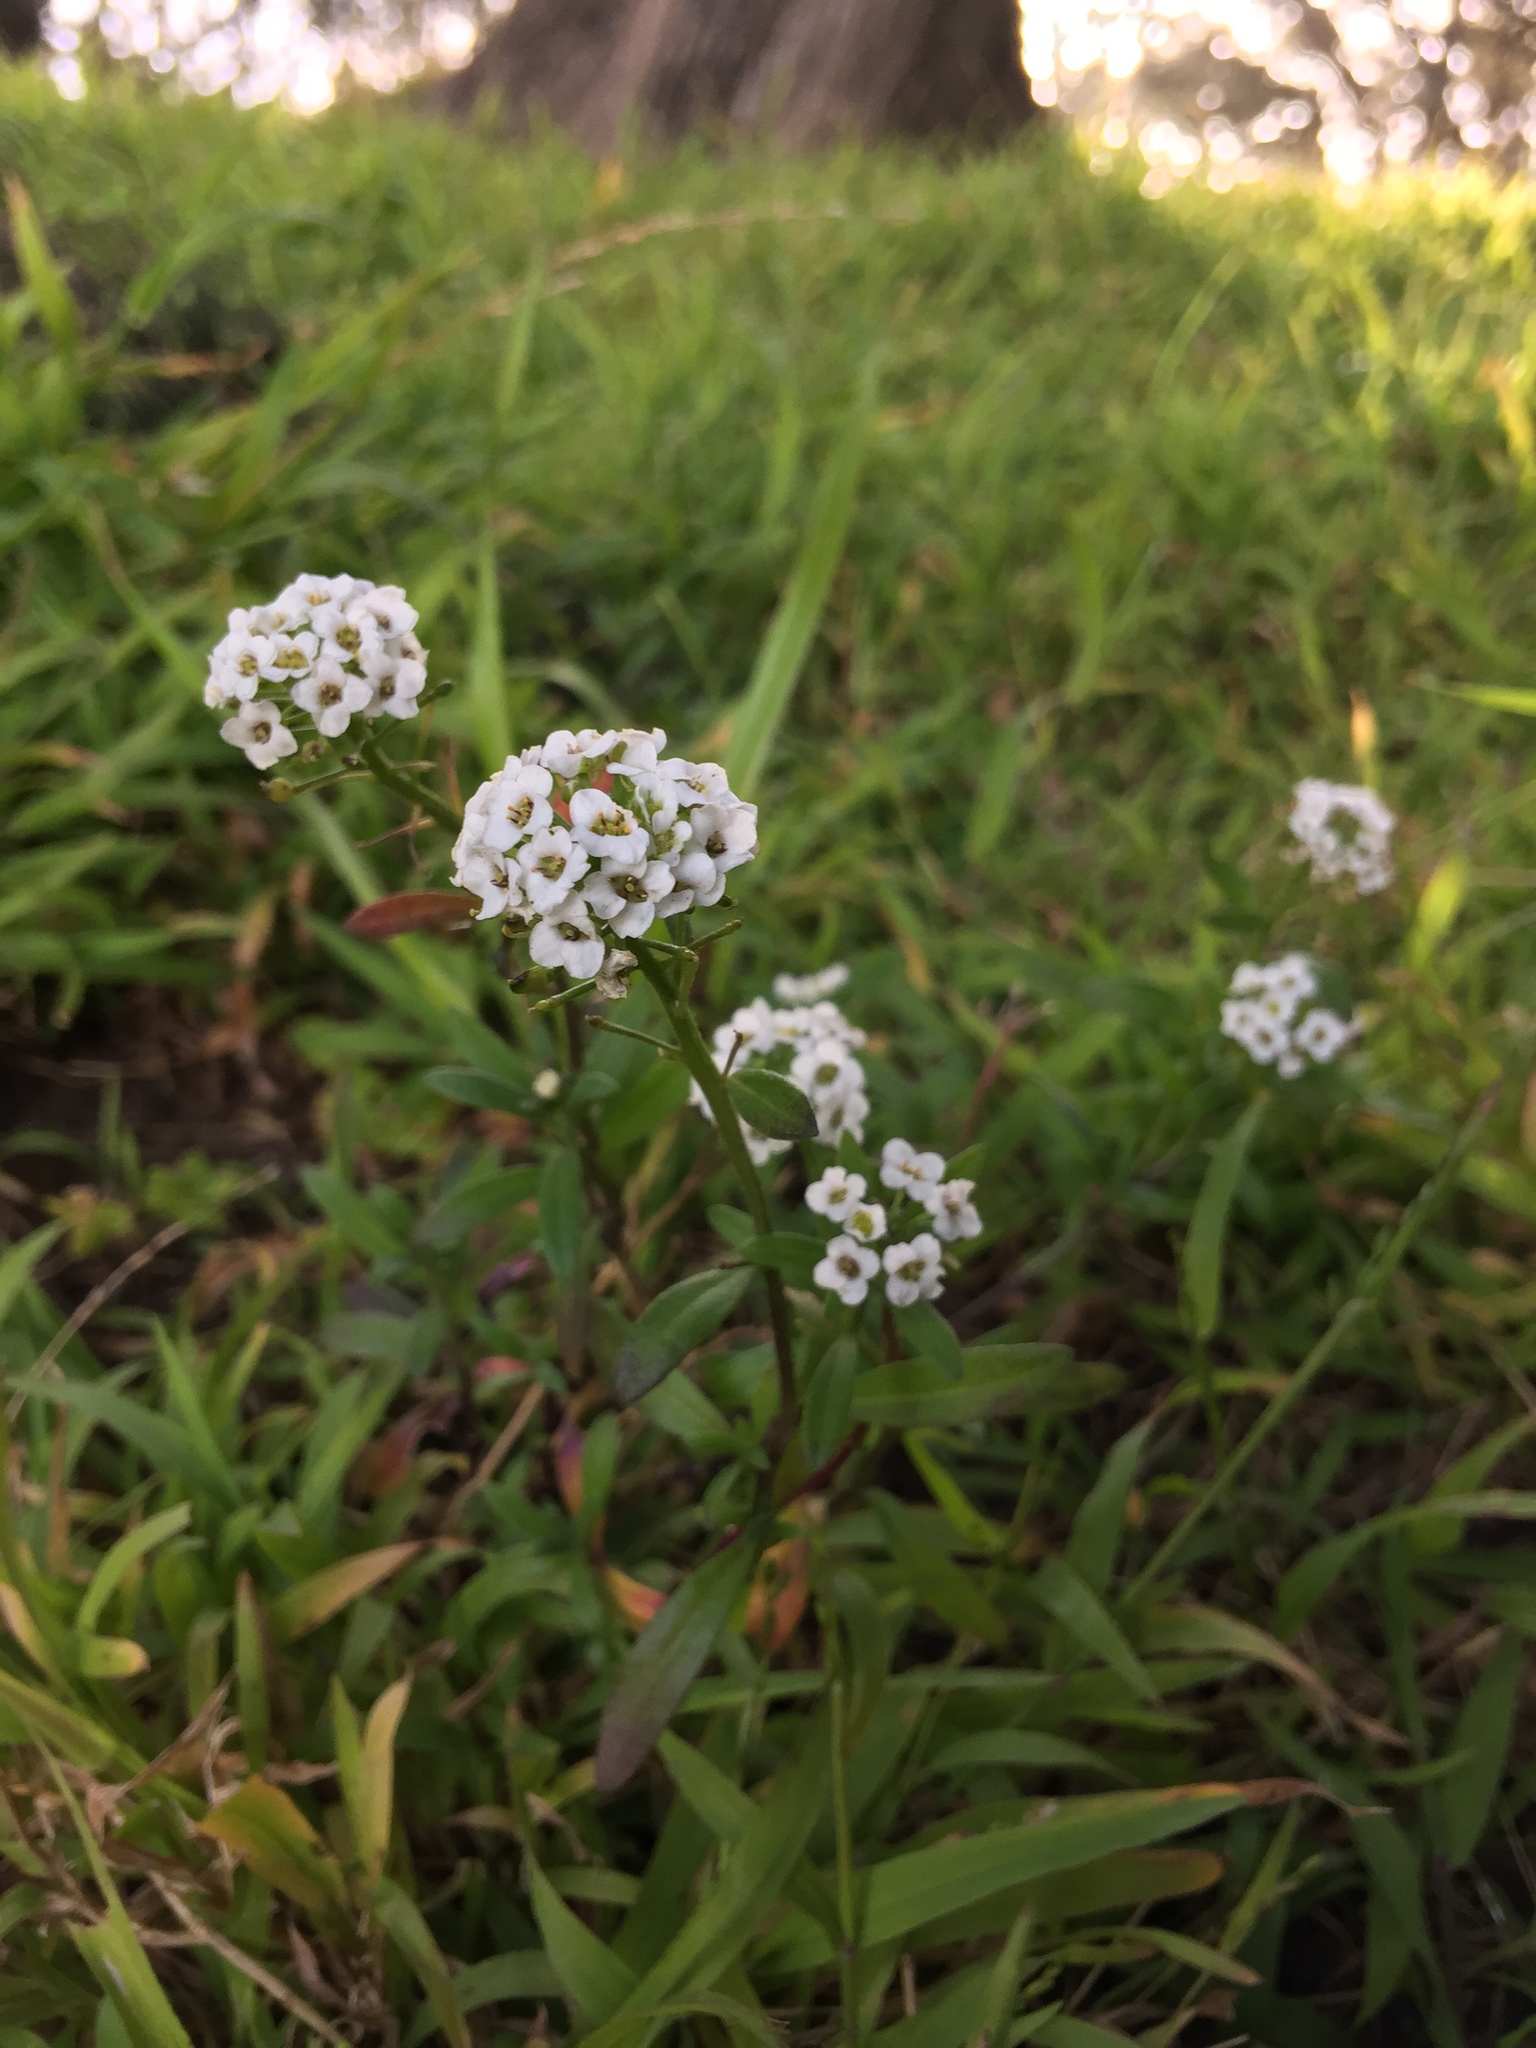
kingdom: Plantae
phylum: Tracheophyta
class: Magnoliopsida
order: Brassicales
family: Brassicaceae
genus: Lobularia
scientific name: Lobularia maritima
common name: Sweet alison
